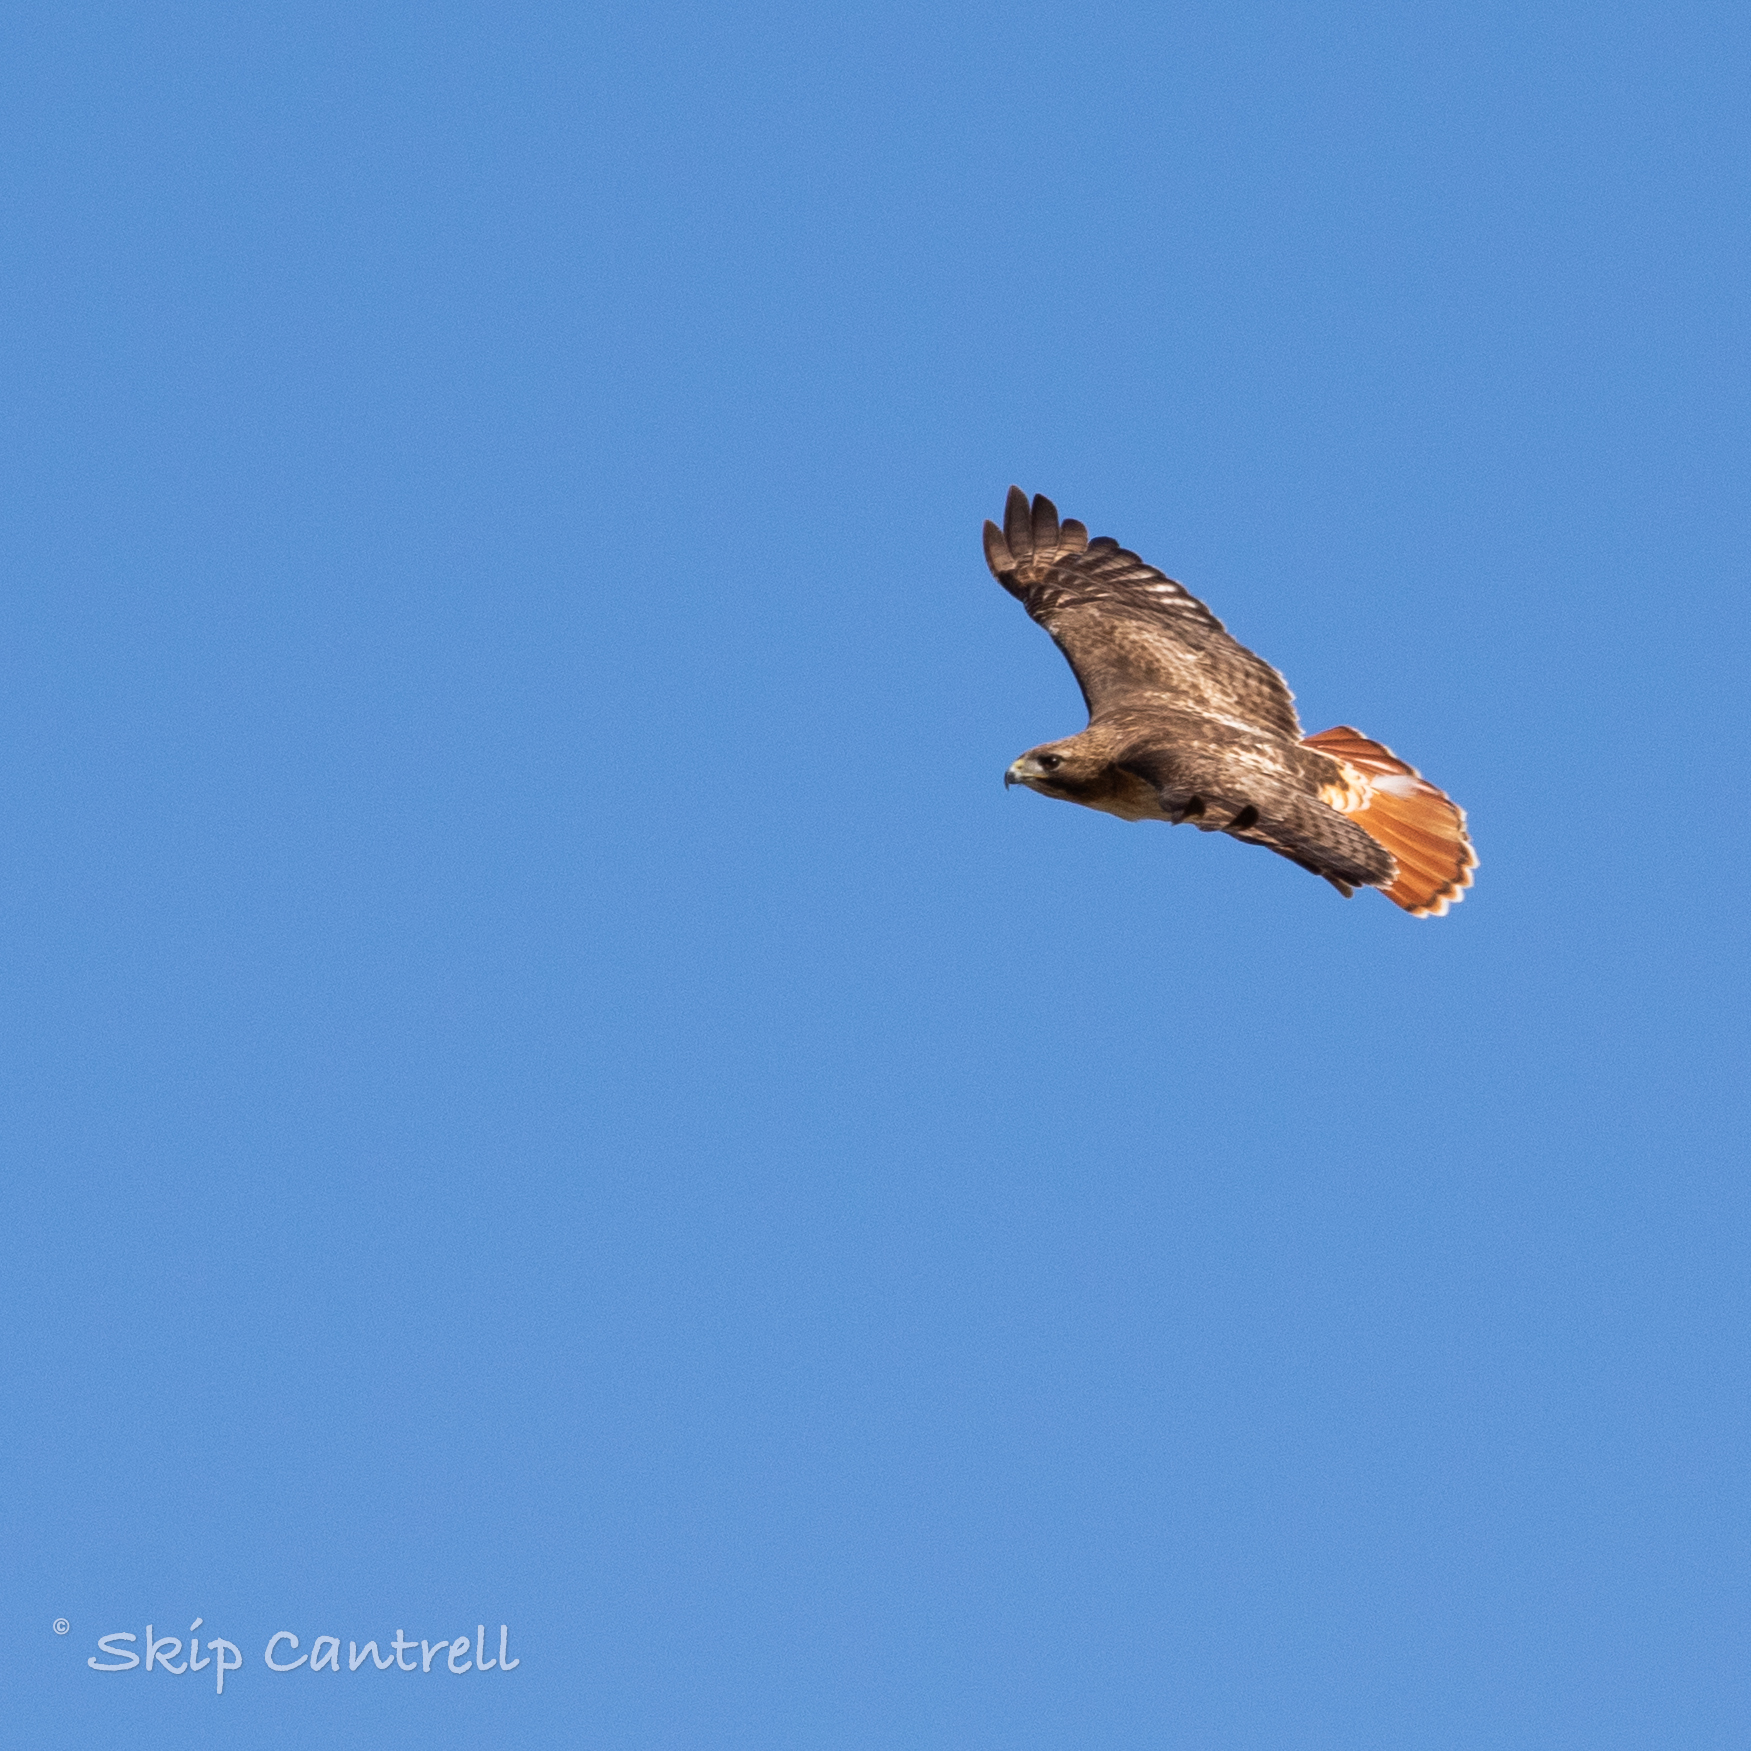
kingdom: Animalia
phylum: Chordata
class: Aves
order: Accipitriformes
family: Accipitridae
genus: Buteo
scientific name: Buteo jamaicensis
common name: Red-tailed hawk
